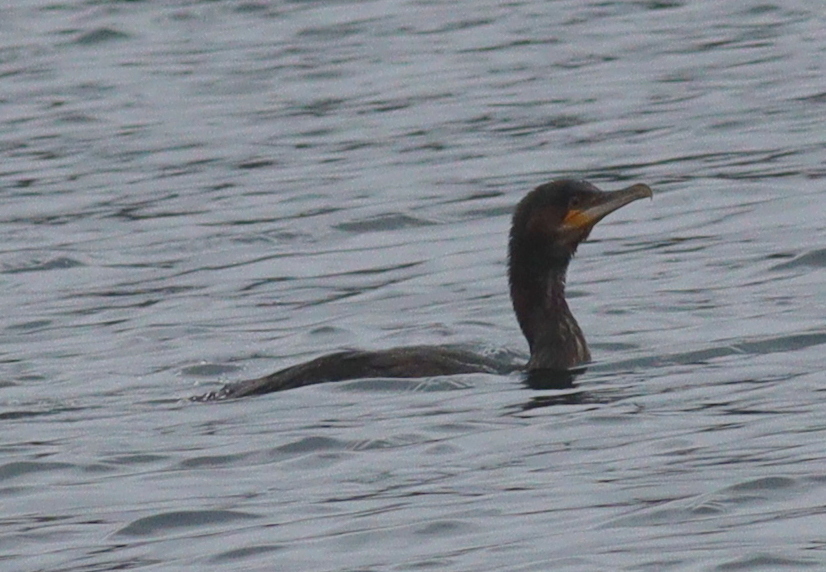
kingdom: Animalia
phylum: Chordata
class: Aves
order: Suliformes
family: Phalacrocoracidae
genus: Phalacrocorax
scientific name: Phalacrocorax carbo
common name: Great cormorant
